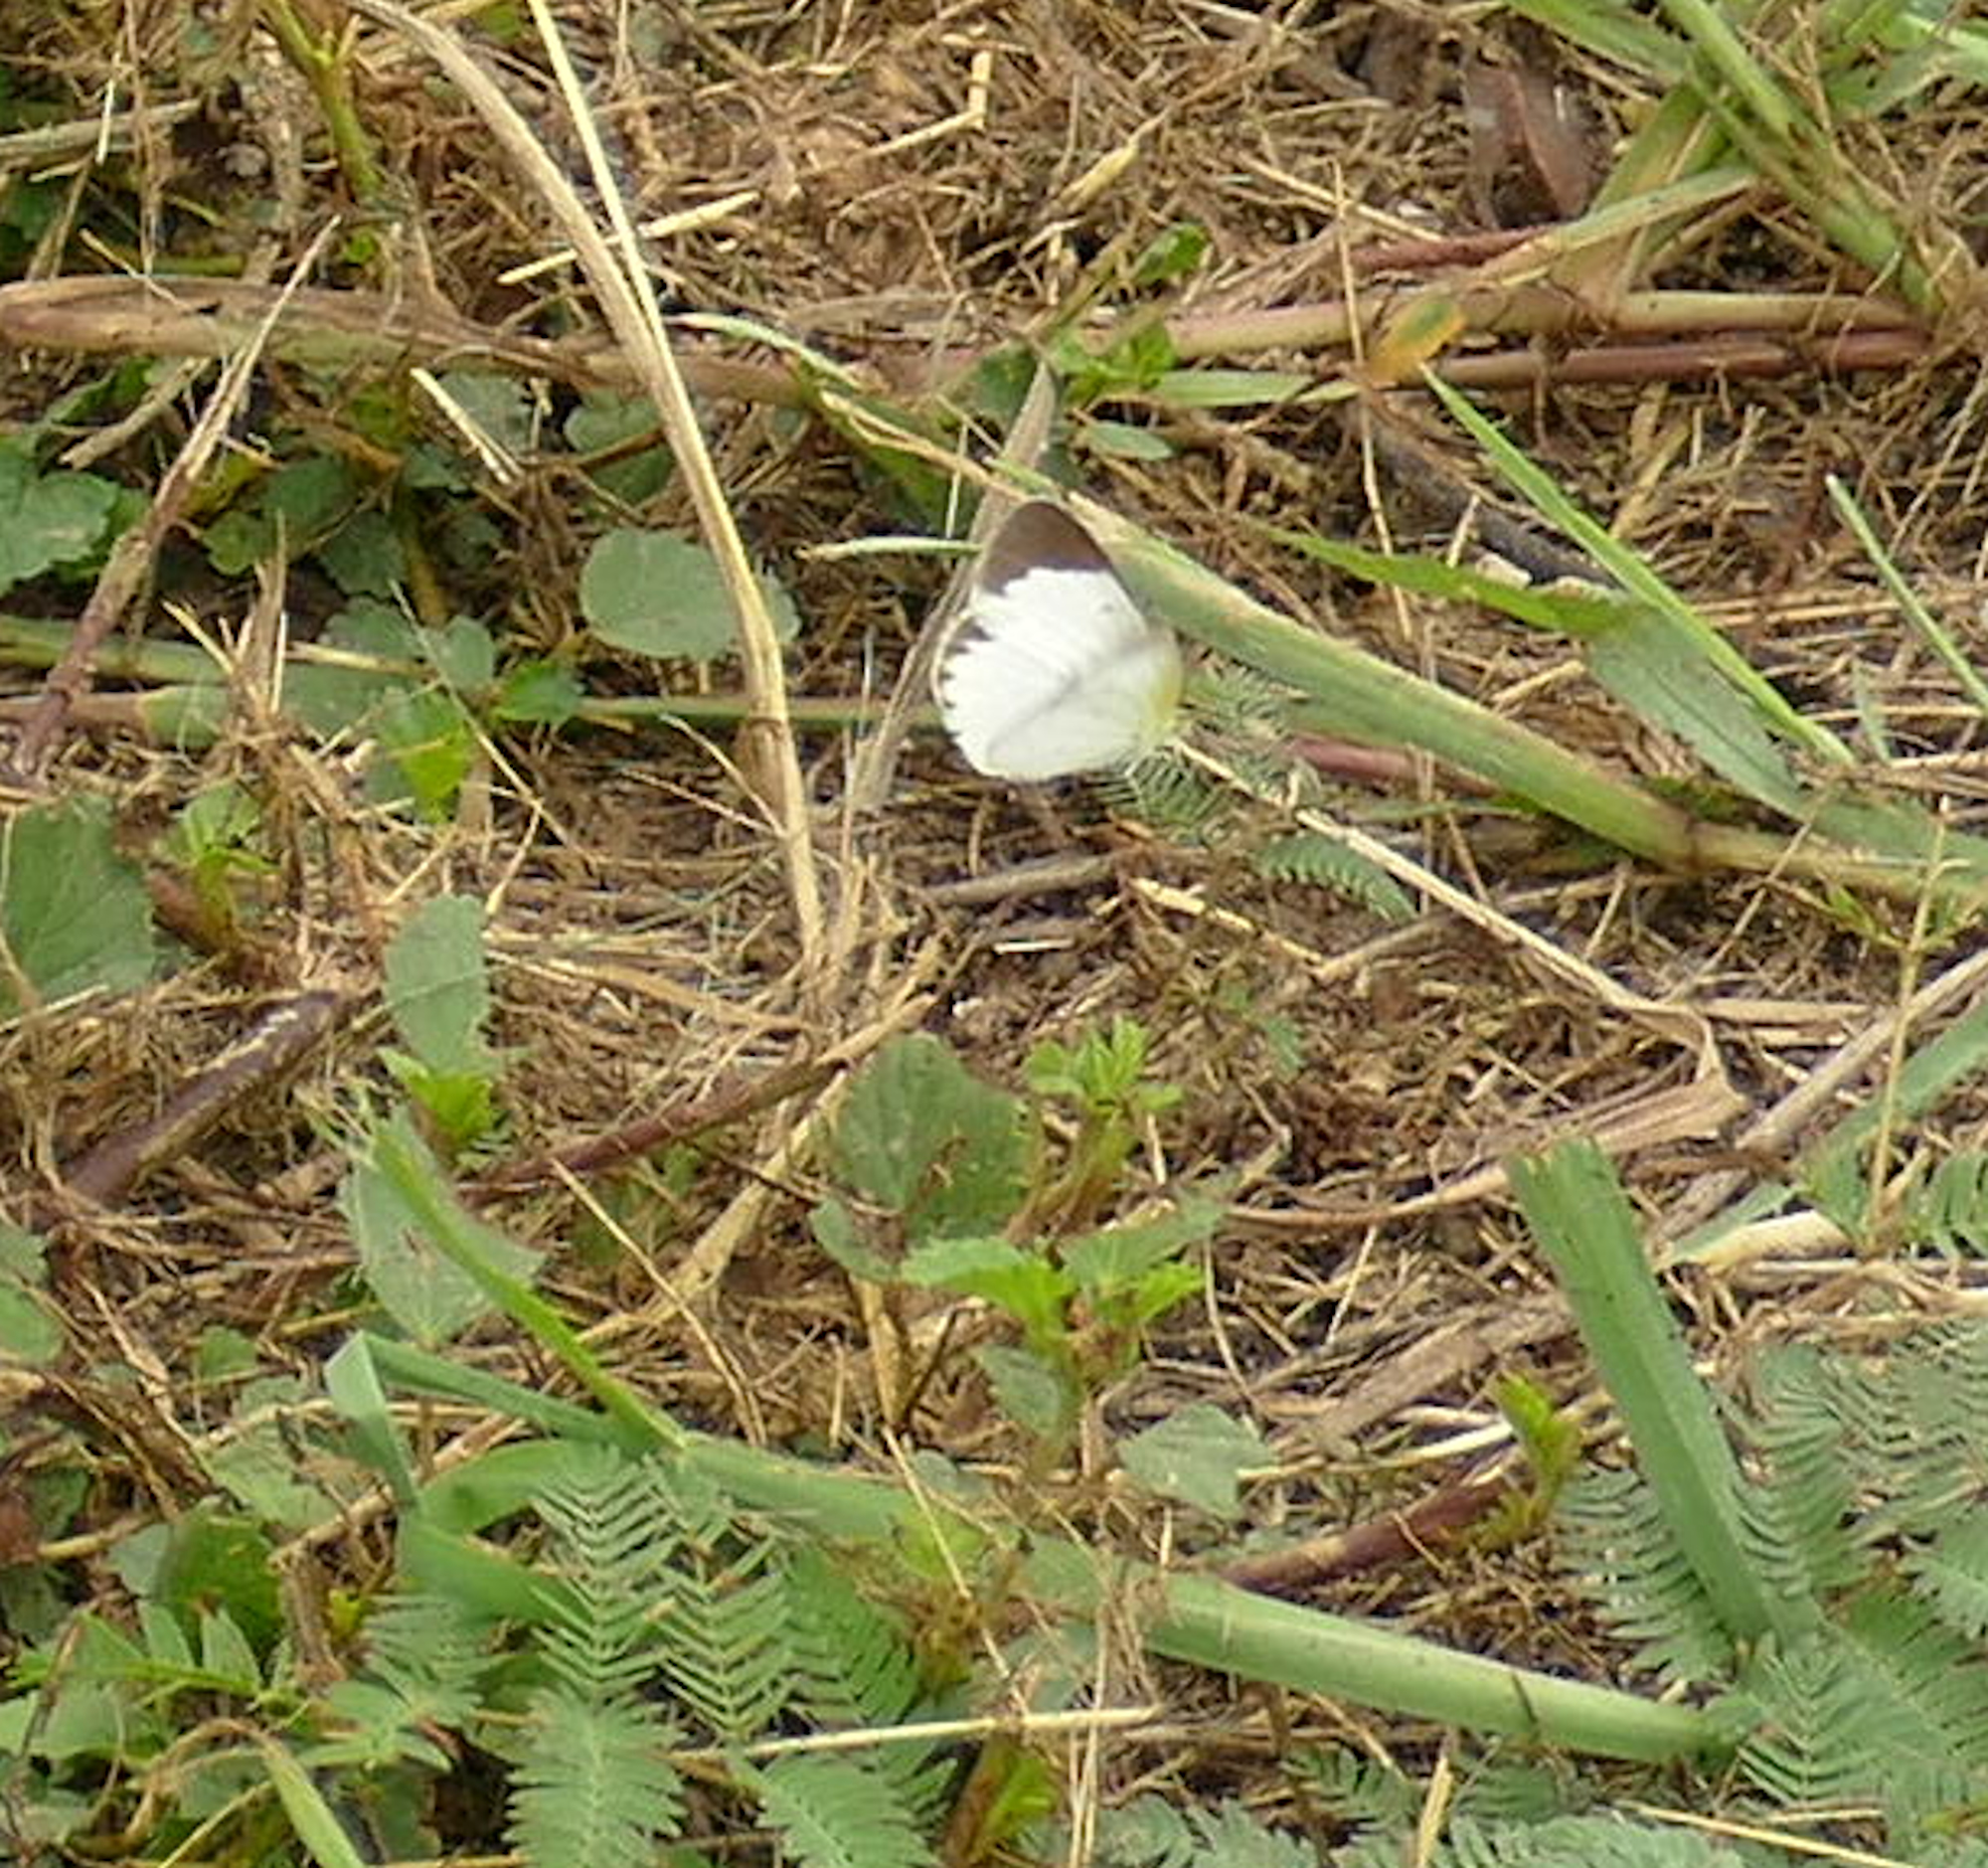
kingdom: Animalia
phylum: Arthropoda
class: Insecta
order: Lepidoptera
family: Pieridae
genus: Pyrisitia
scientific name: Pyrisitia lisa
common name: Little yellow
